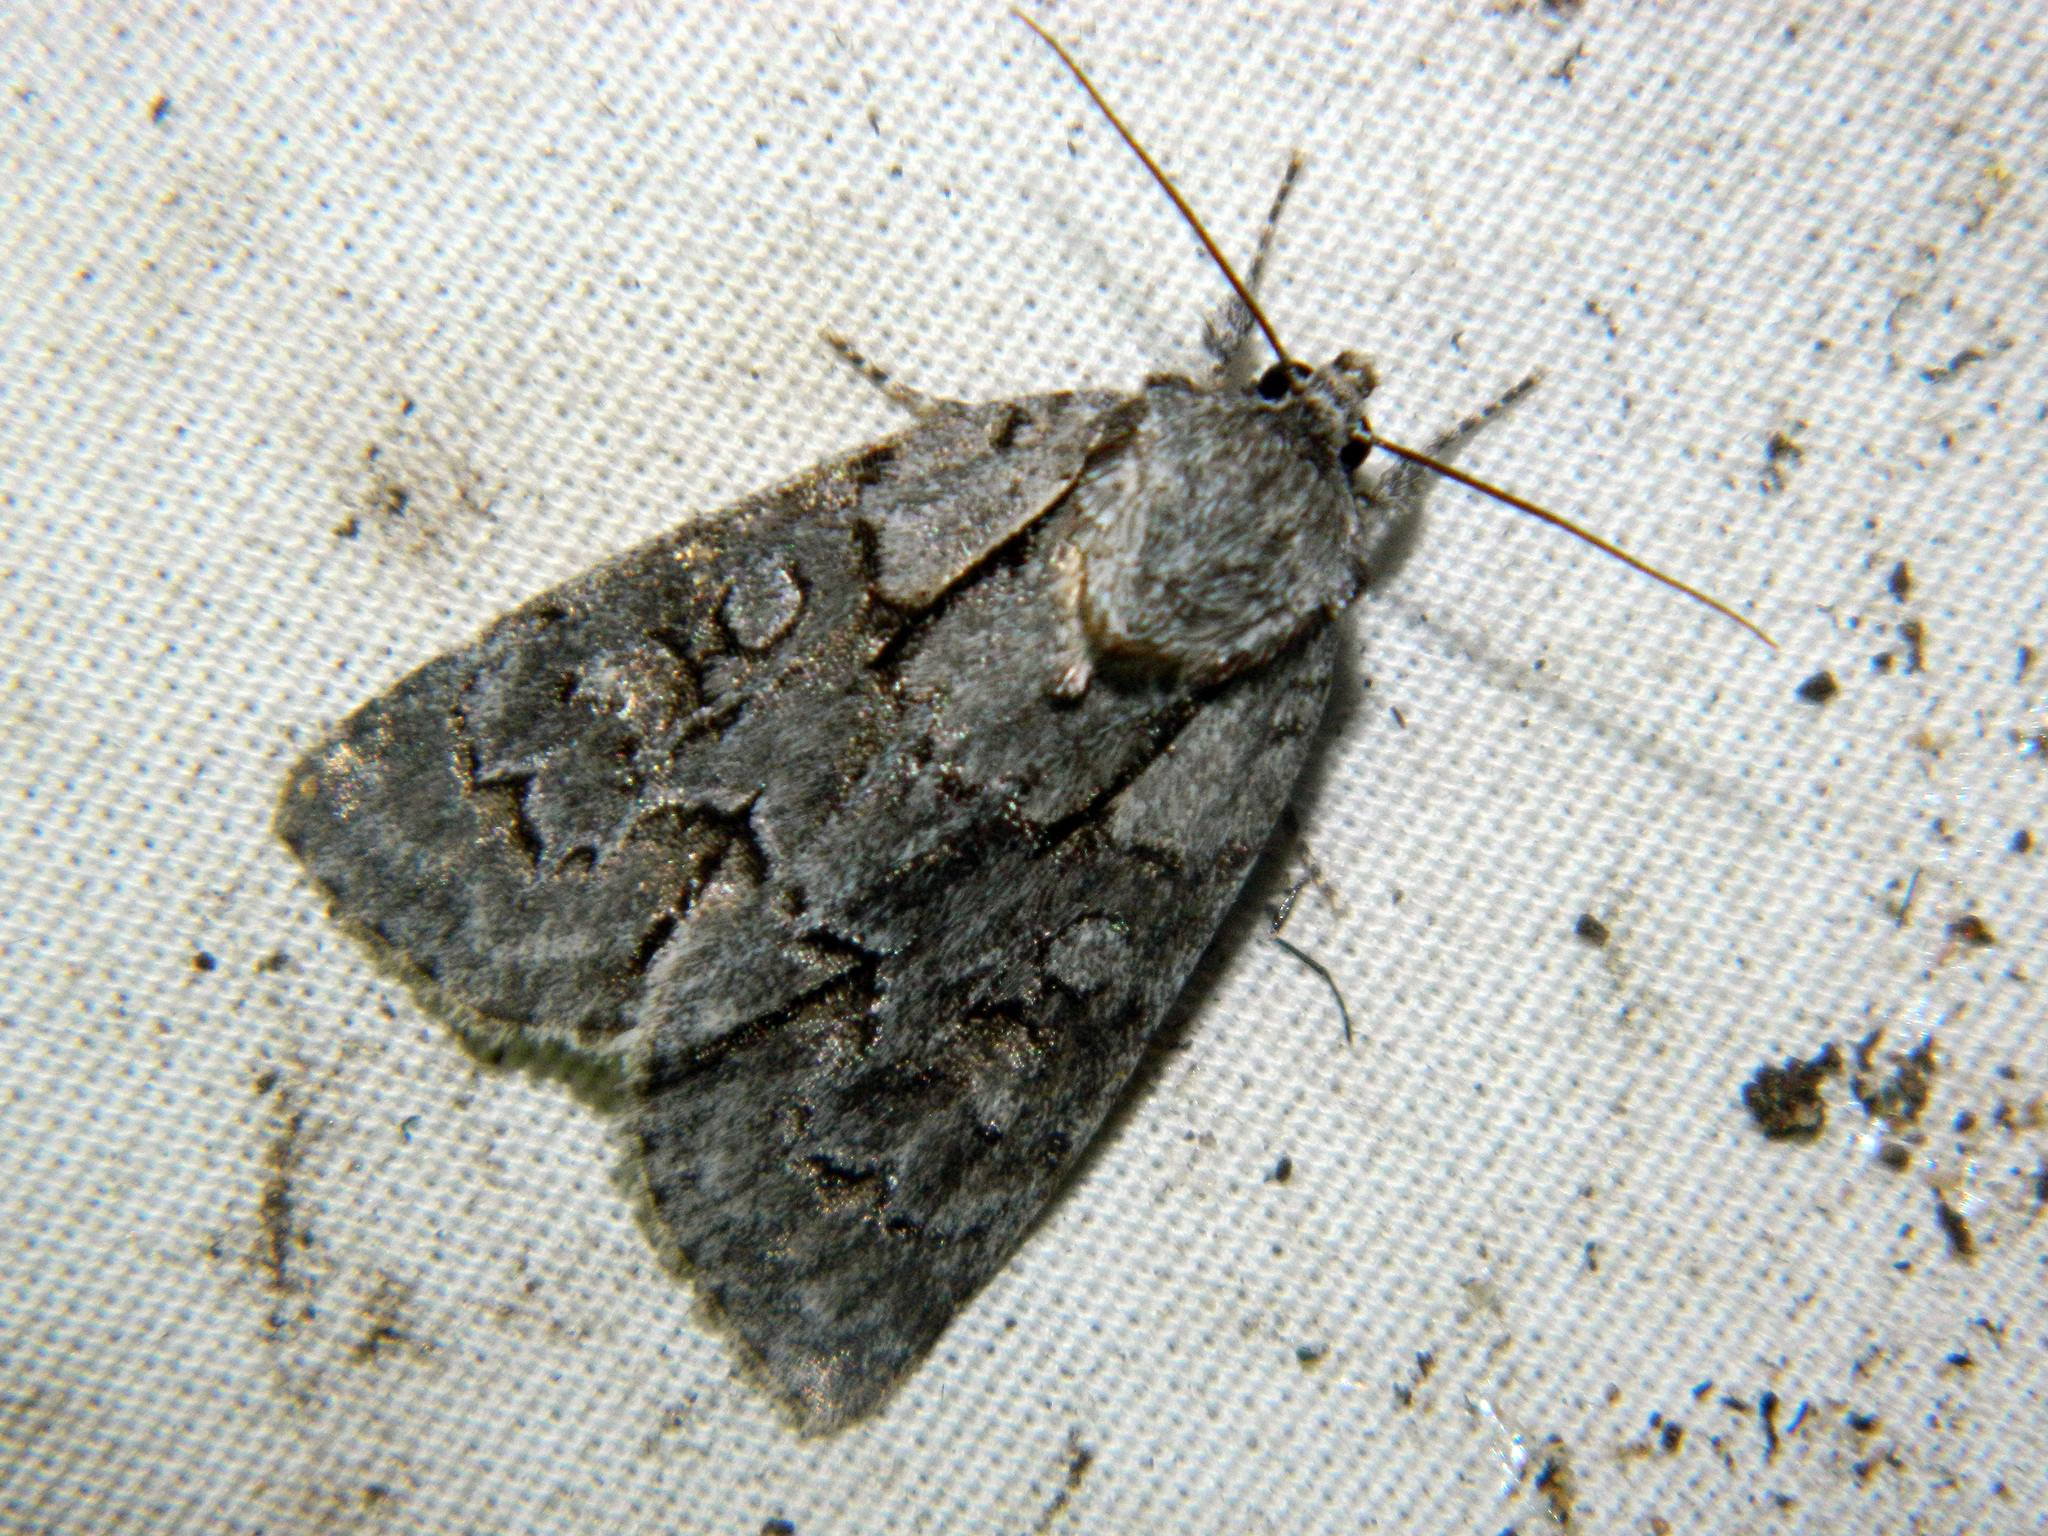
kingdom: Animalia
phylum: Arthropoda
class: Insecta
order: Lepidoptera
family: Noctuidae
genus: Acronicta
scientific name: Acronicta grisea
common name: Gray dagger
